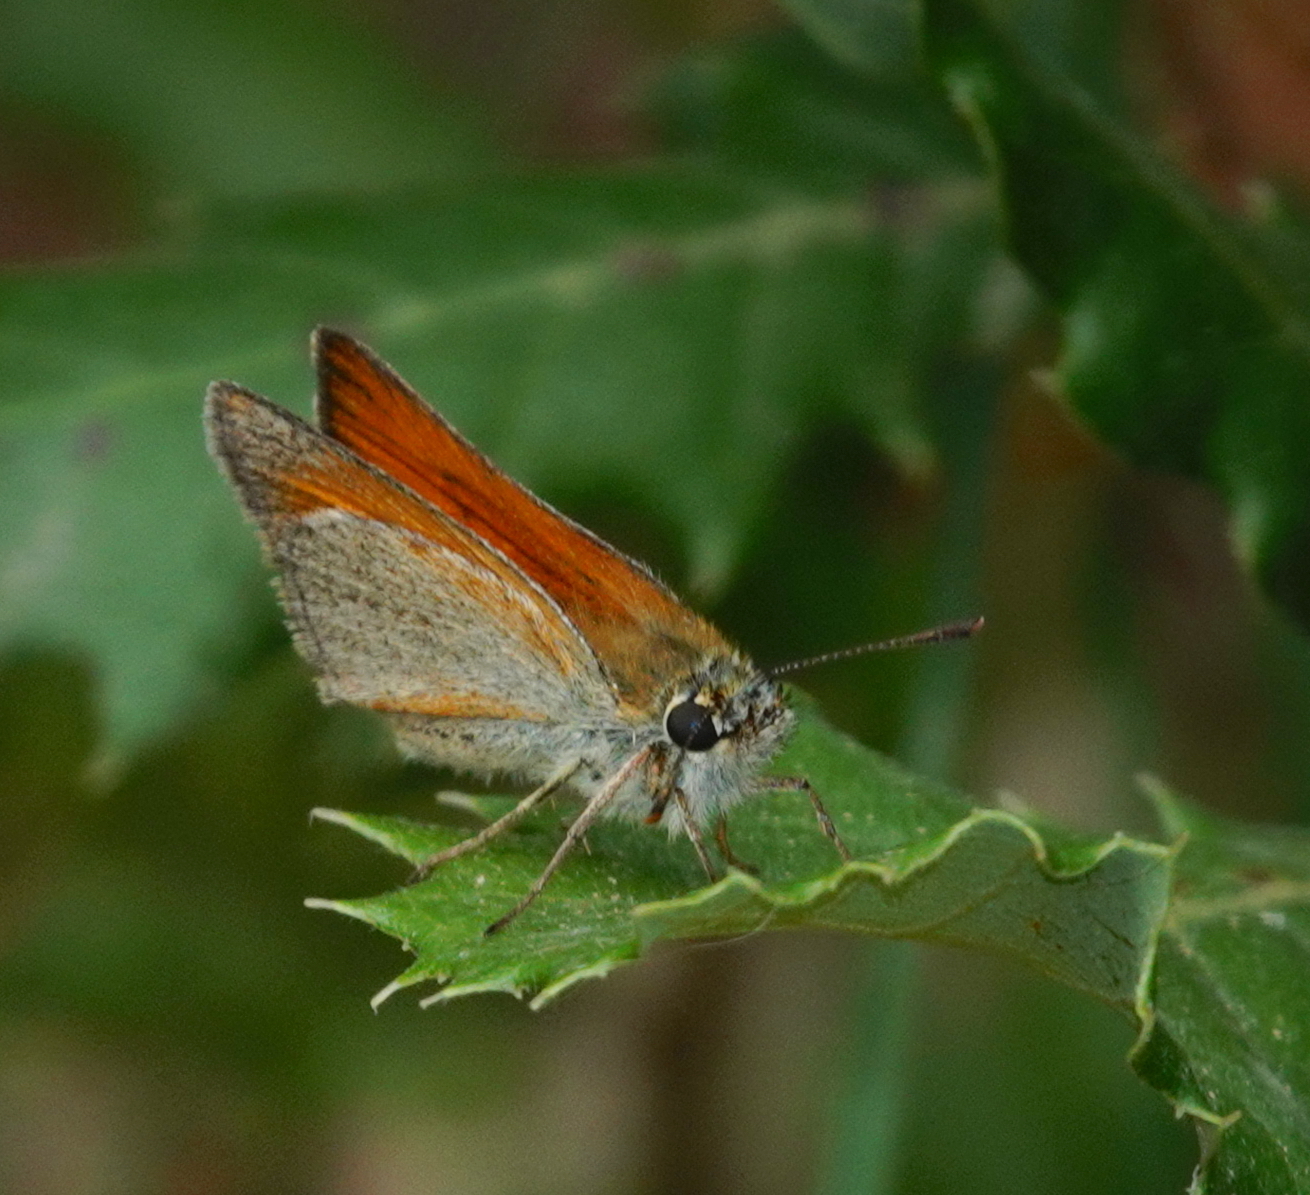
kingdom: Animalia
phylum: Arthropoda
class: Insecta
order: Lepidoptera
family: Hesperiidae
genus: Thymelicus
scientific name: Thymelicus sylvestris
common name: Small skipper
